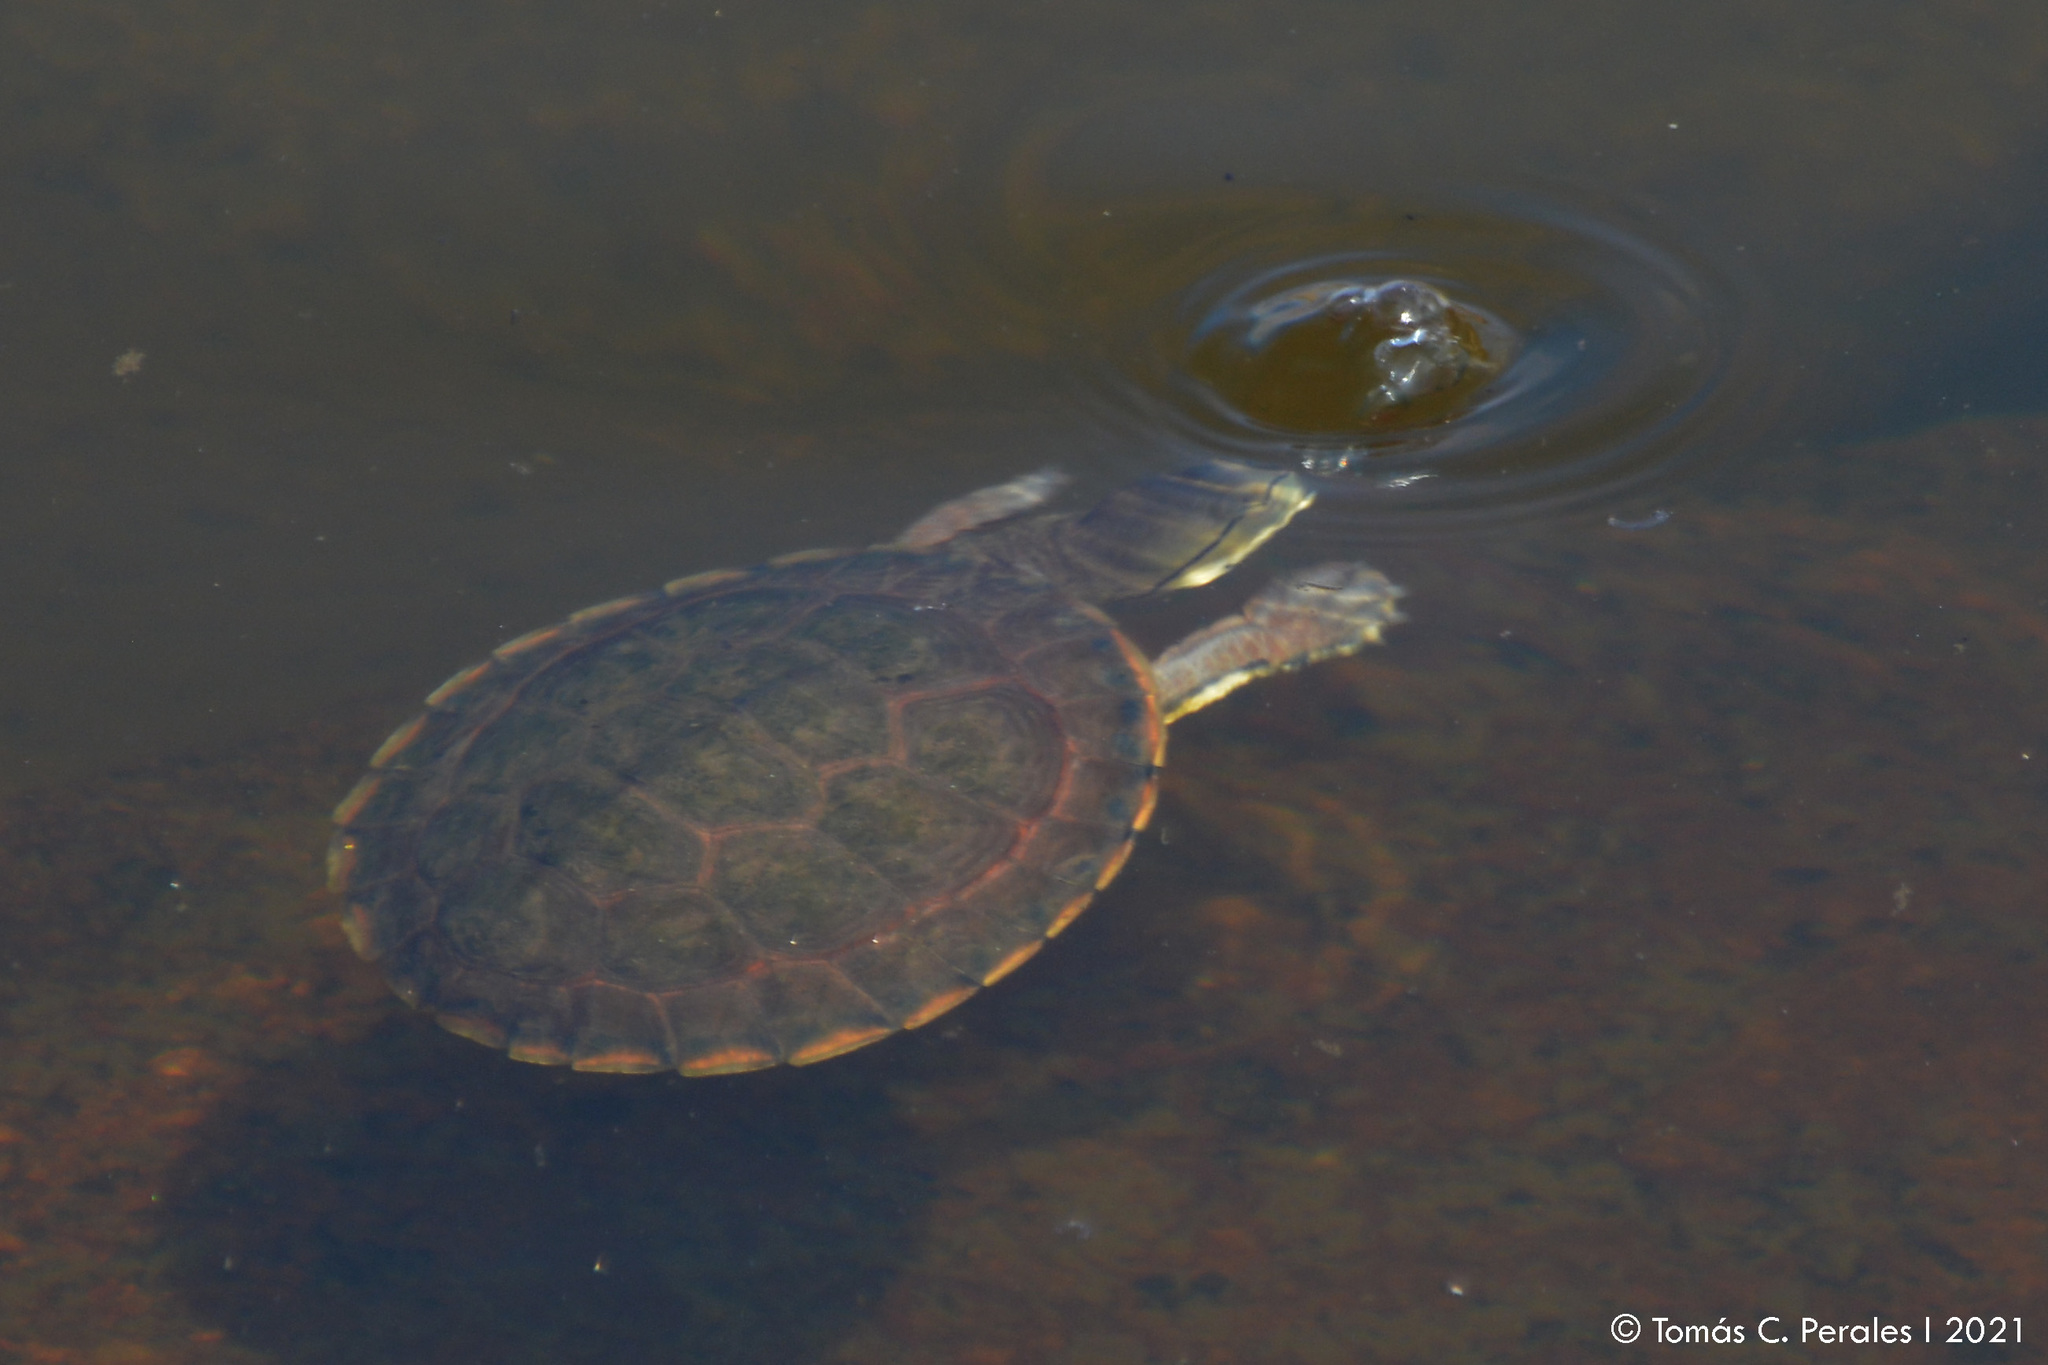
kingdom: Animalia
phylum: Chordata
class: Testudines
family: Chelidae
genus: Phrynops
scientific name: Phrynops hilarii
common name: Side-necked turtle of saint hillaire
